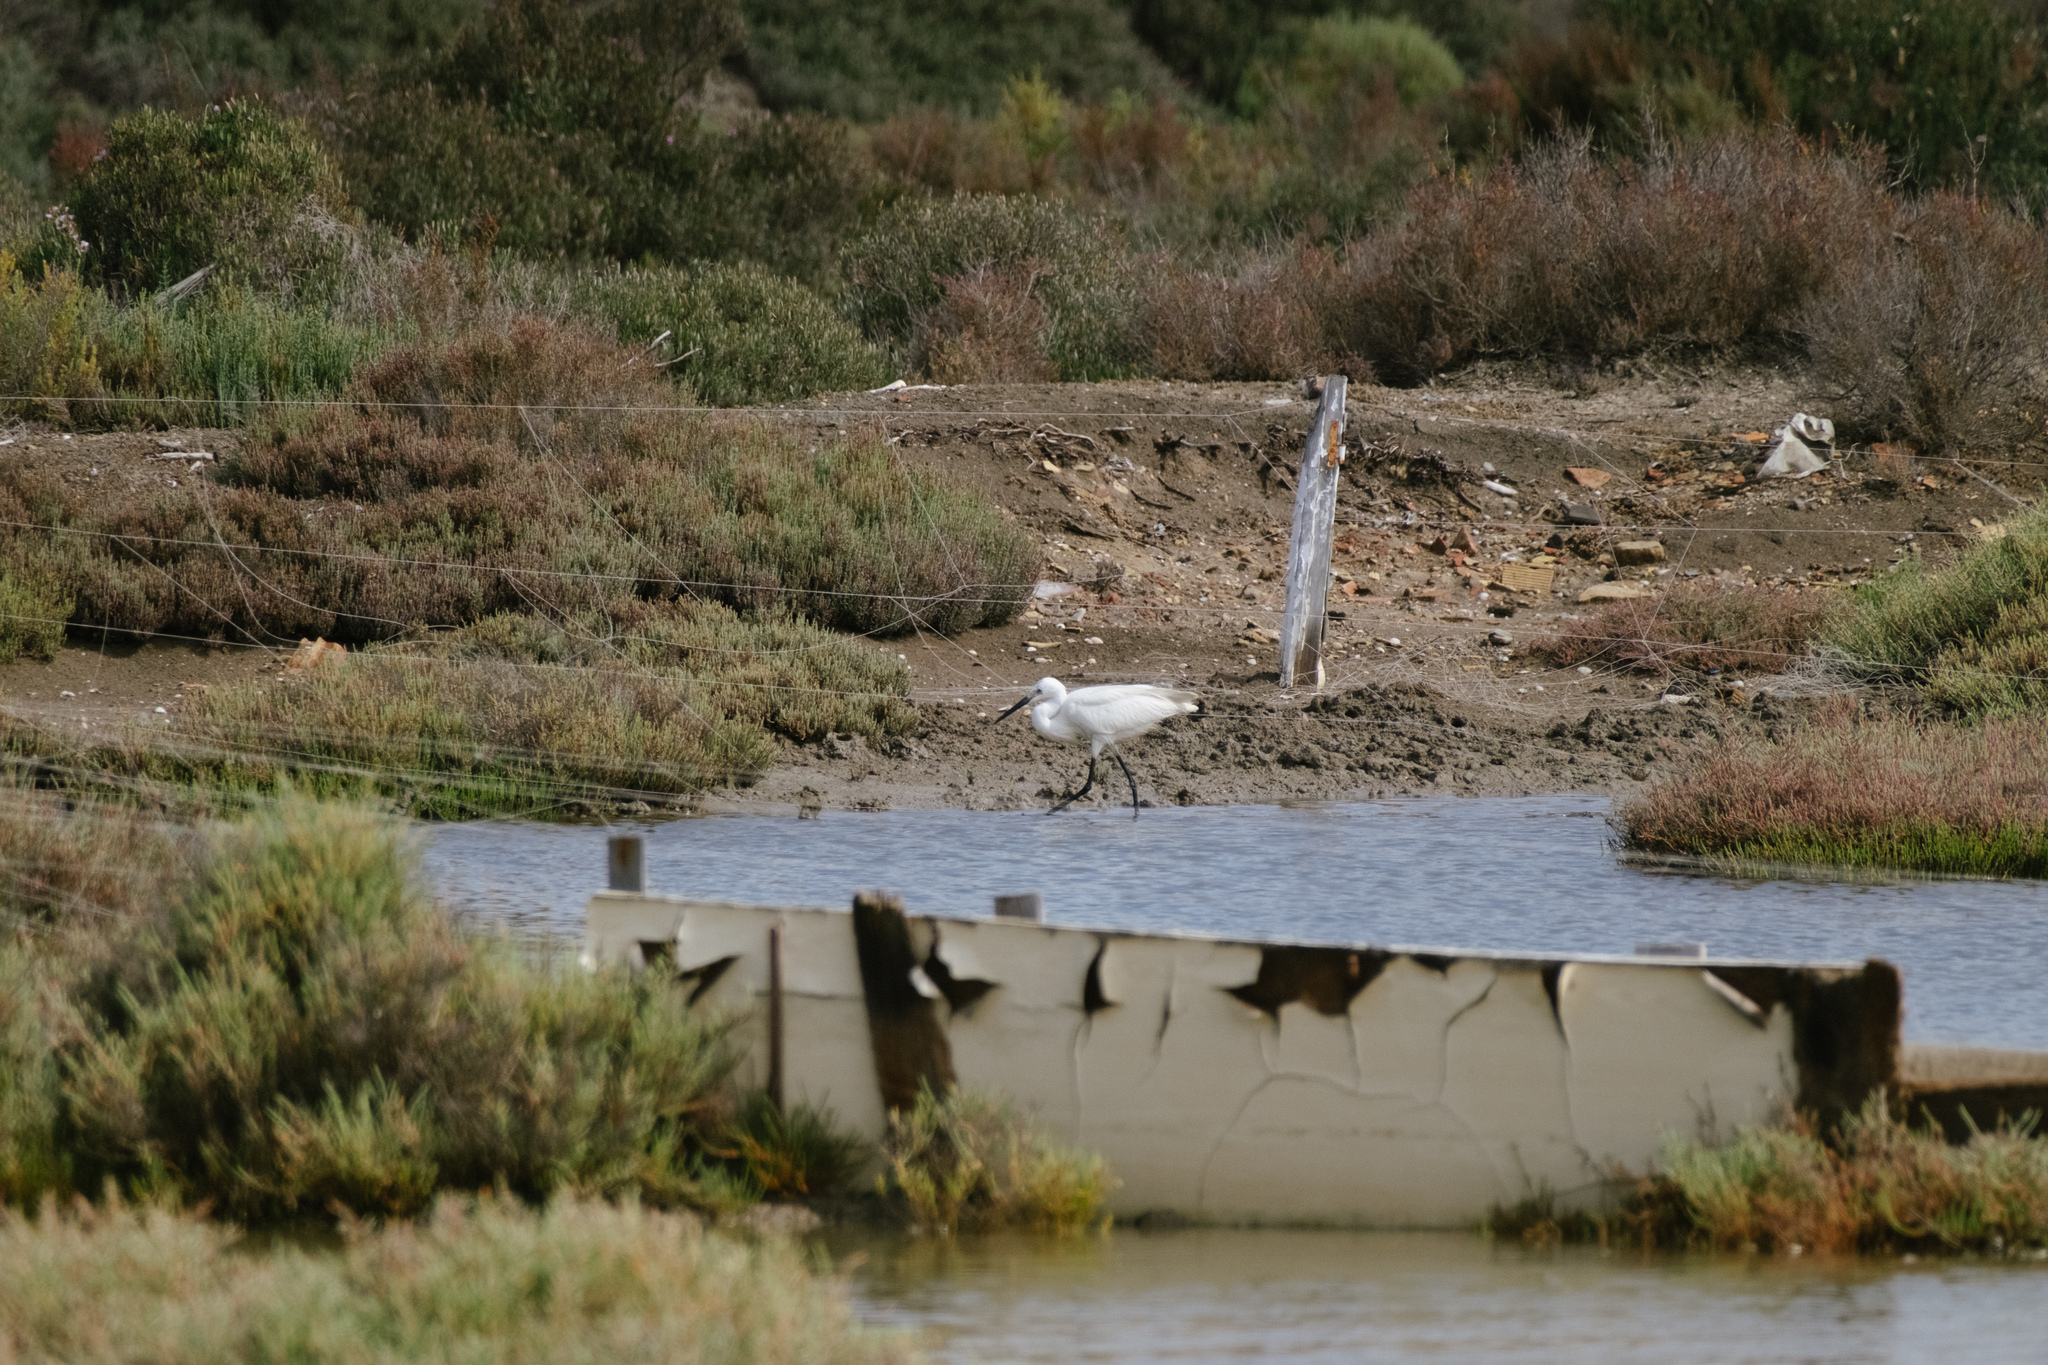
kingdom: Animalia
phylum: Chordata
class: Aves
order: Pelecaniformes
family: Ardeidae
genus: Egretta
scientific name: Egretta garzetta
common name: Little egret
